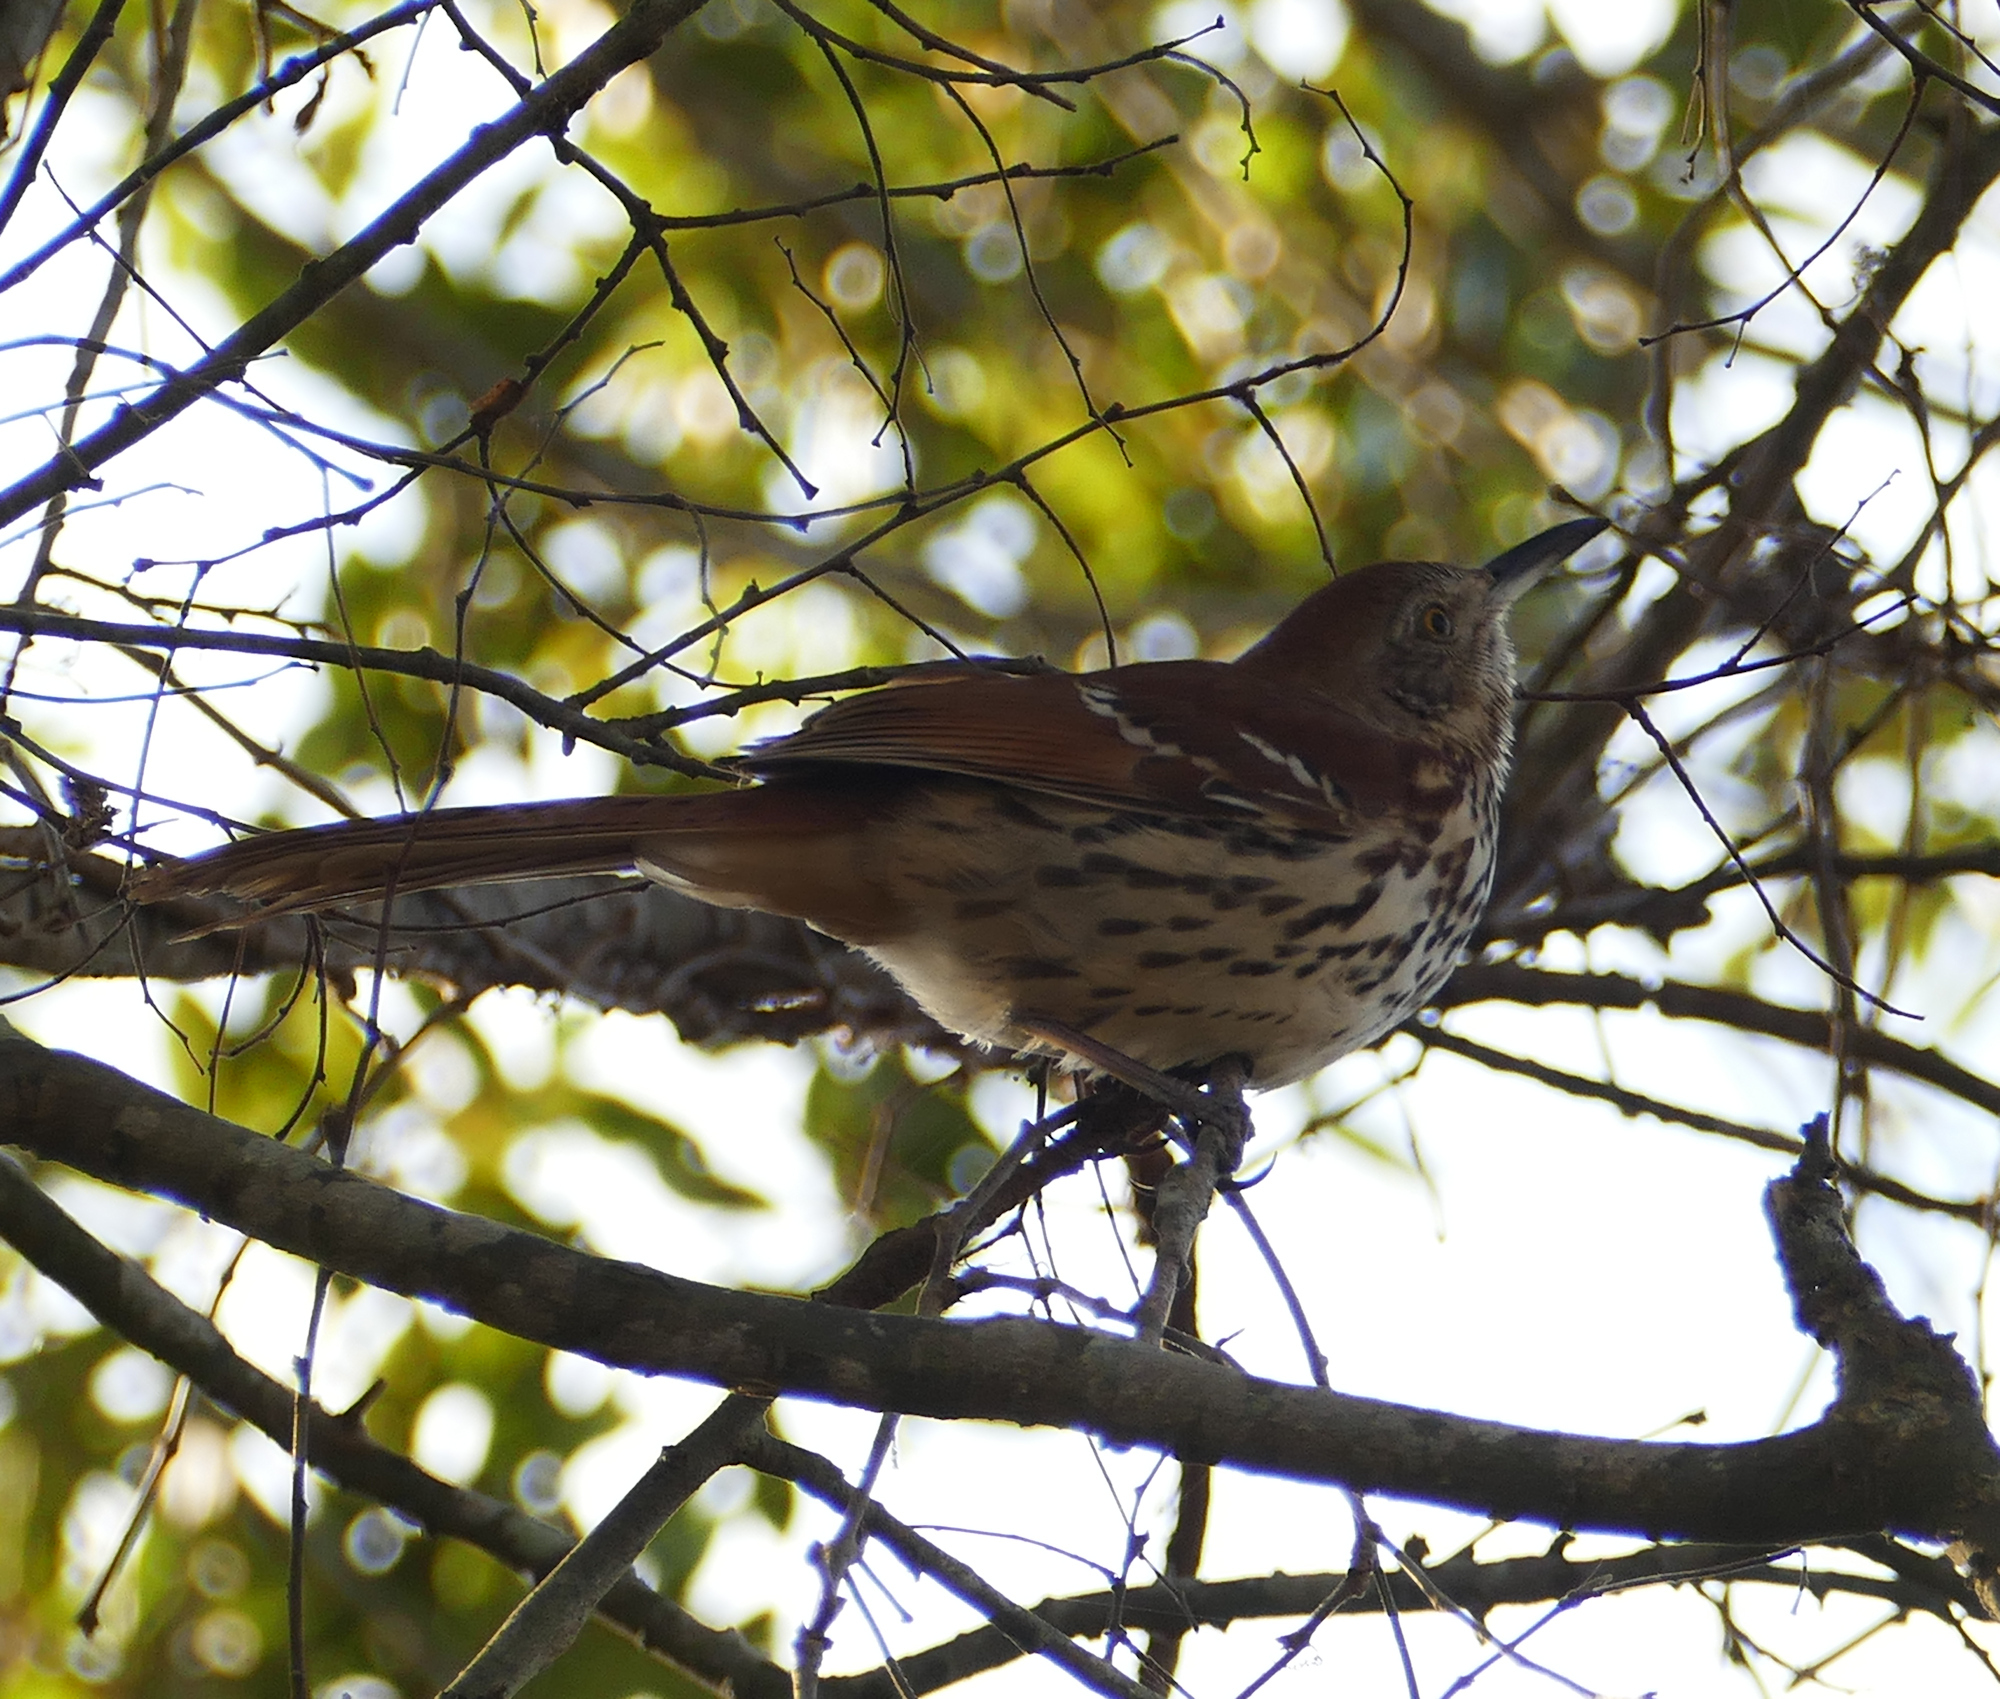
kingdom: Animalia
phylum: Chordata
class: Aves
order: Passeriformes
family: Mimidae
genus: Toxostoma
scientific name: Toxostoma rufum
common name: Brown thrasher
